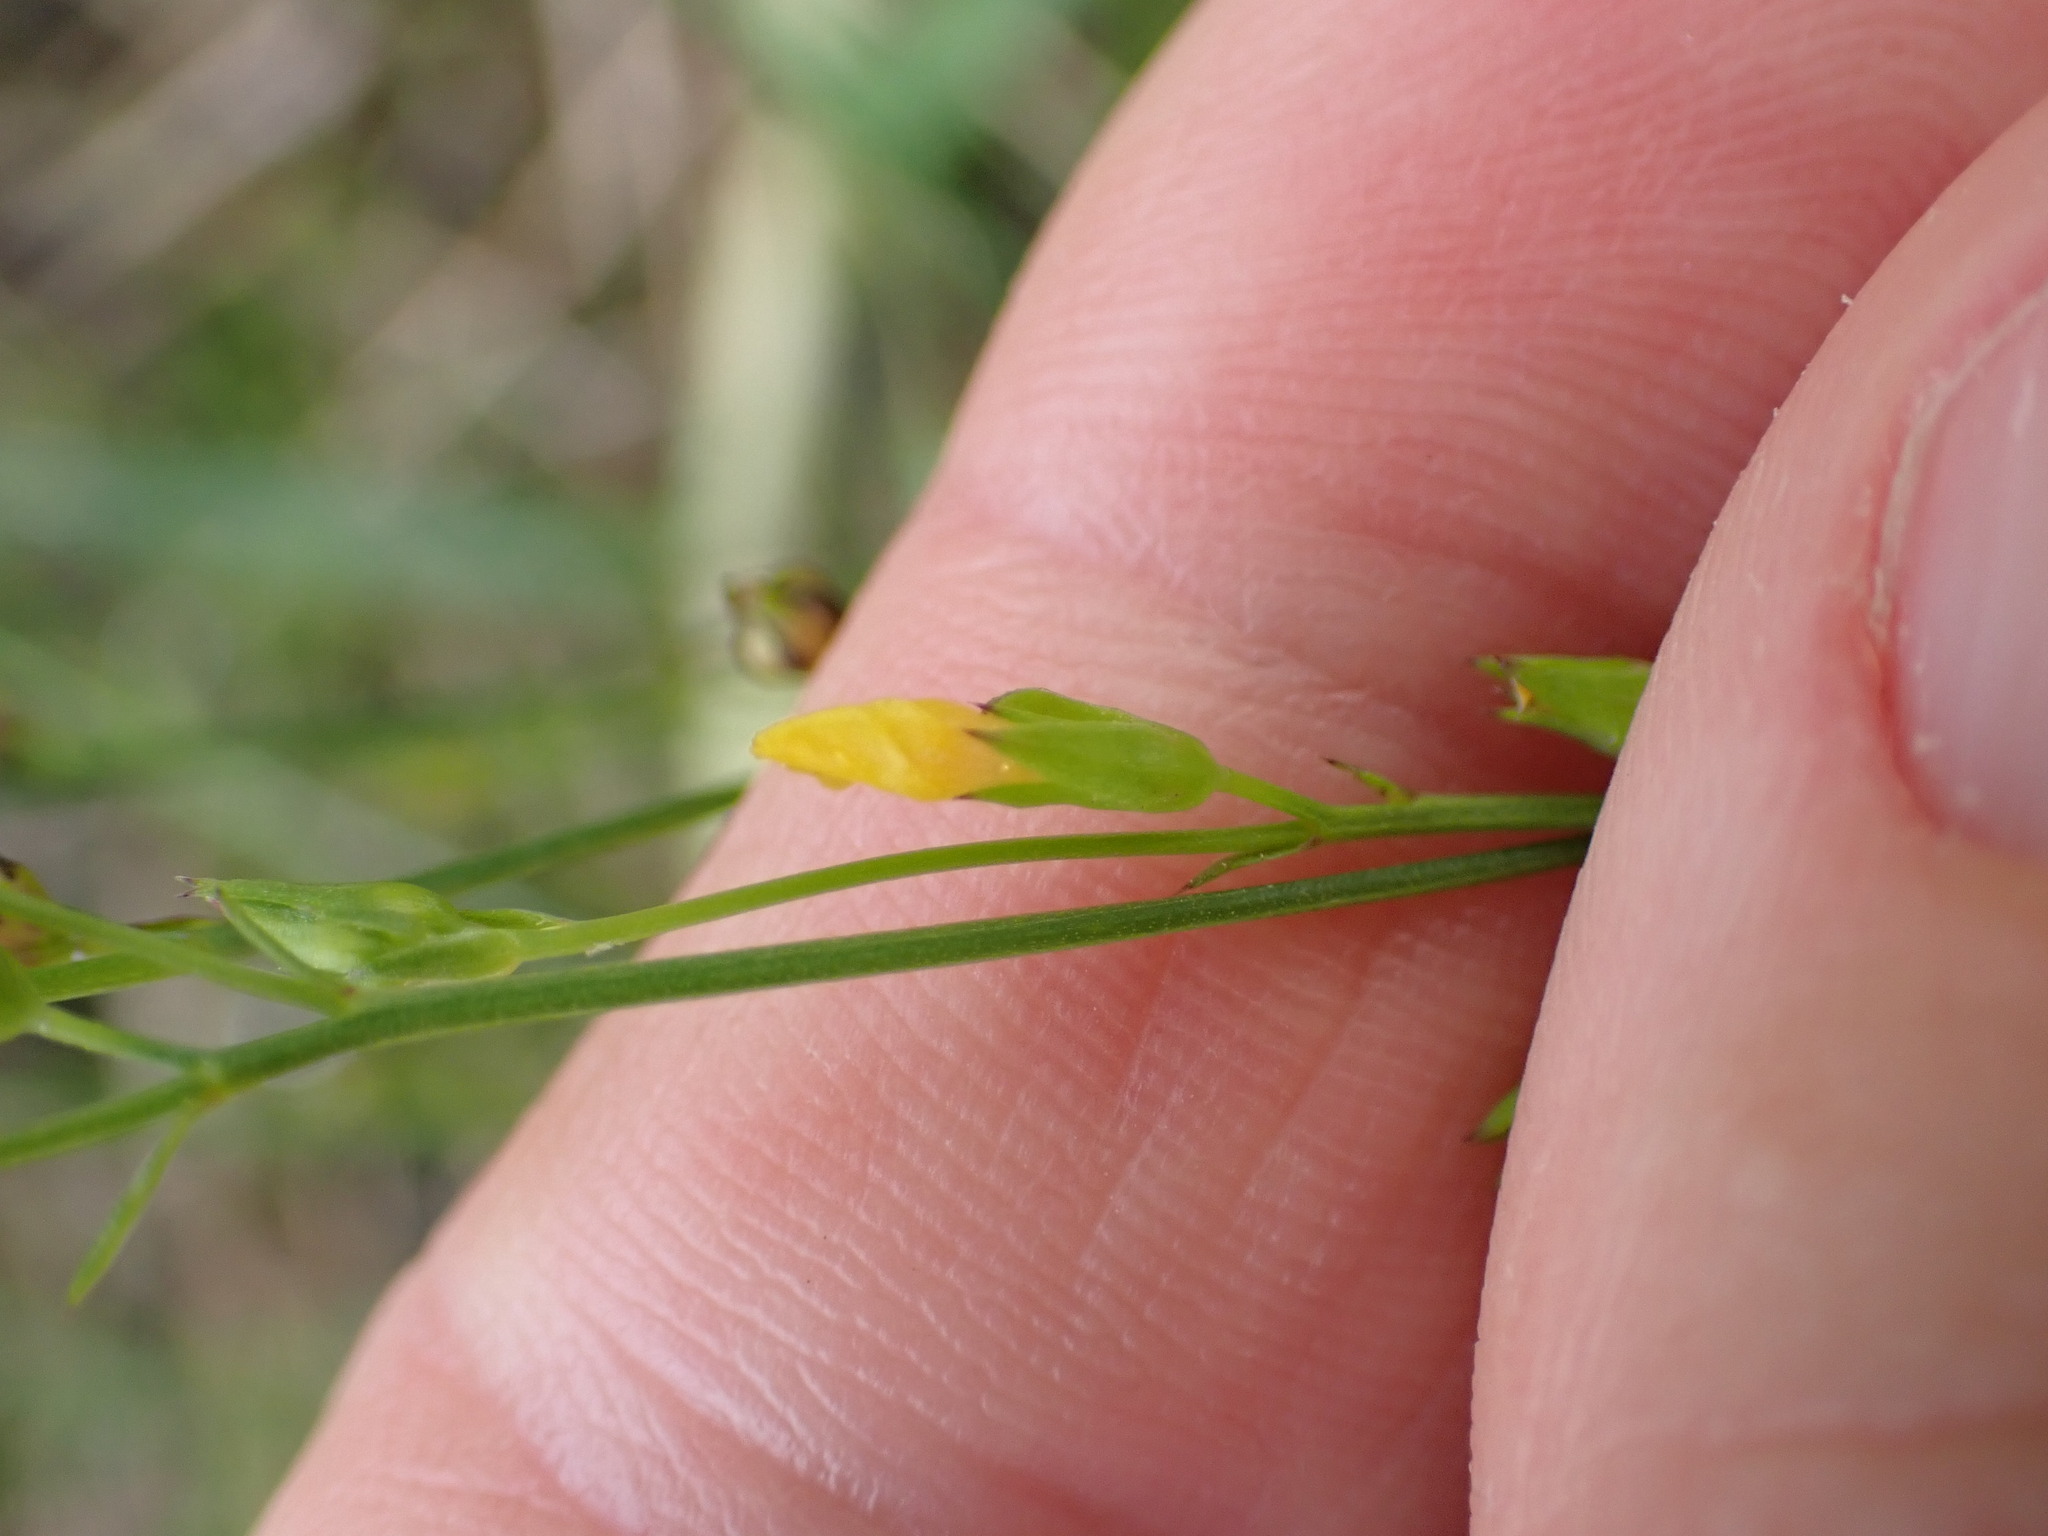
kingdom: Plantae
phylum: Tracheophyta
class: Magnoliopsida
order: Malpighiales
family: Linaceae
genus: Linum
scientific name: Linum trigynum
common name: French flax
